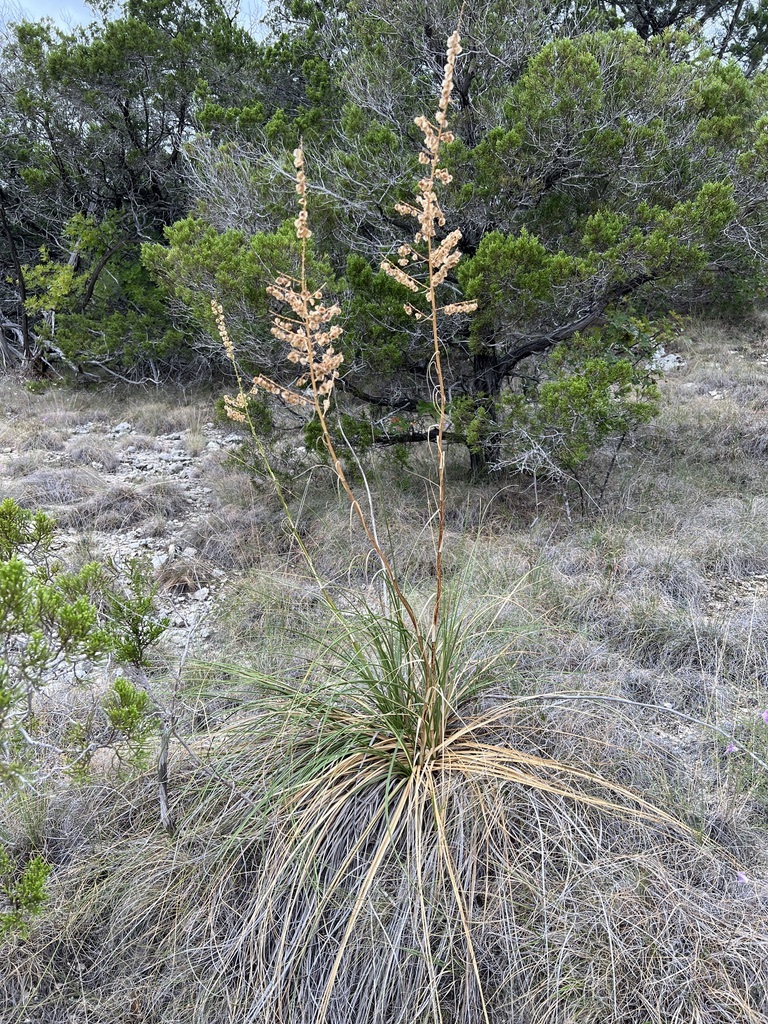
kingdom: Plantae
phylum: Tracheophyta
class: Liliopsida
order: Asparagales
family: Asparagaceae
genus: Nolina
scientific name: Nolina lindheimeriana
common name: Lindheimer's bear-grass
